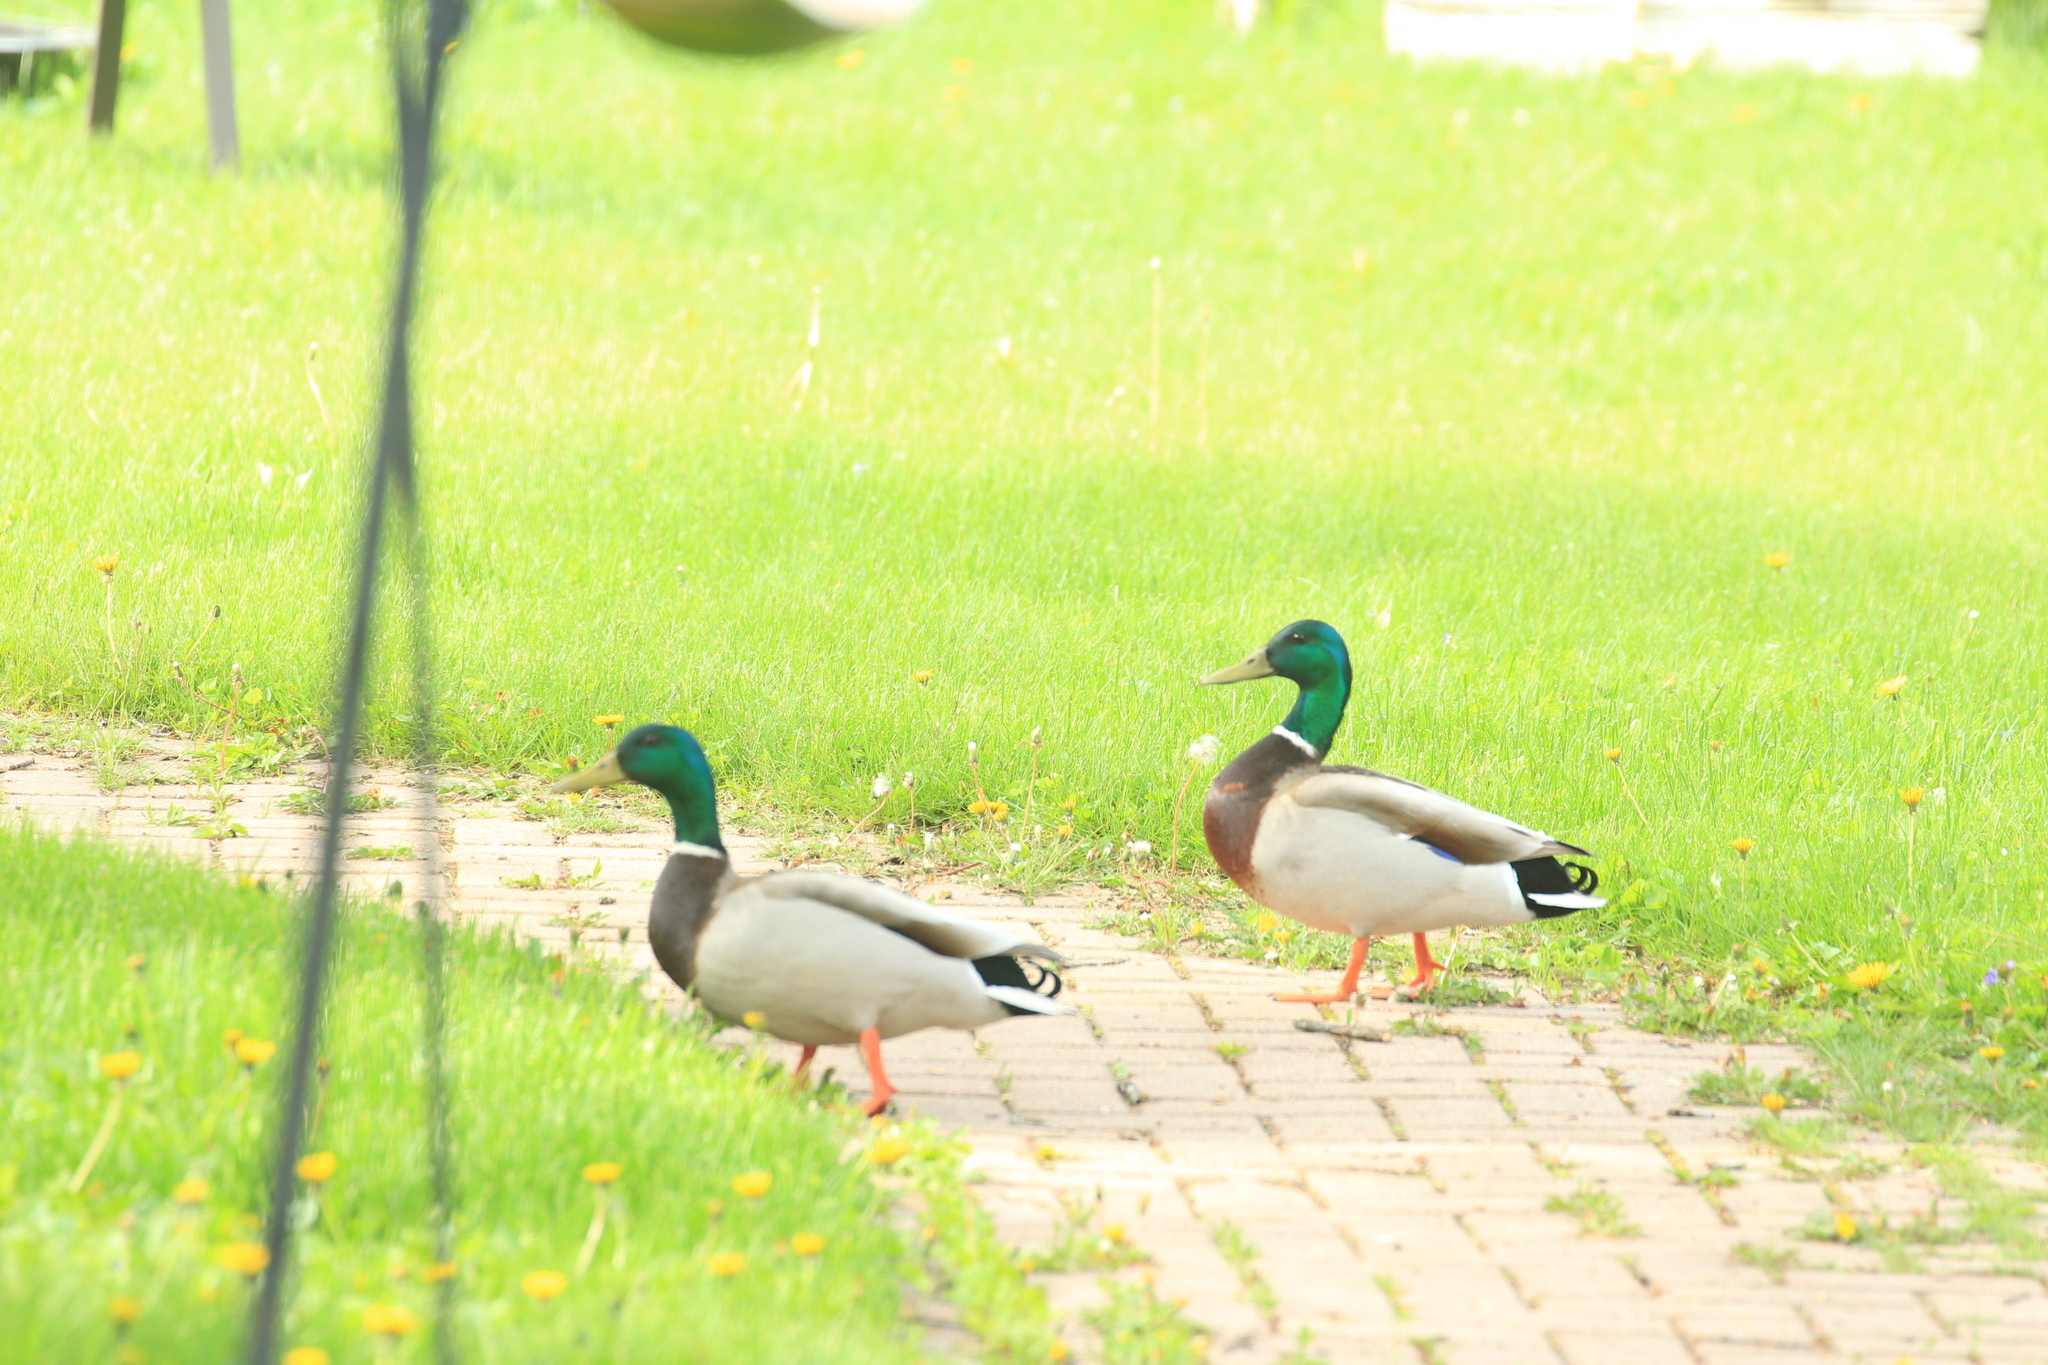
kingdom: Animalia
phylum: Chordata
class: Aves
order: Anseriformes
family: Anatidae
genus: Anas
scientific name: Anas platyrhynchos
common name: Mallard
